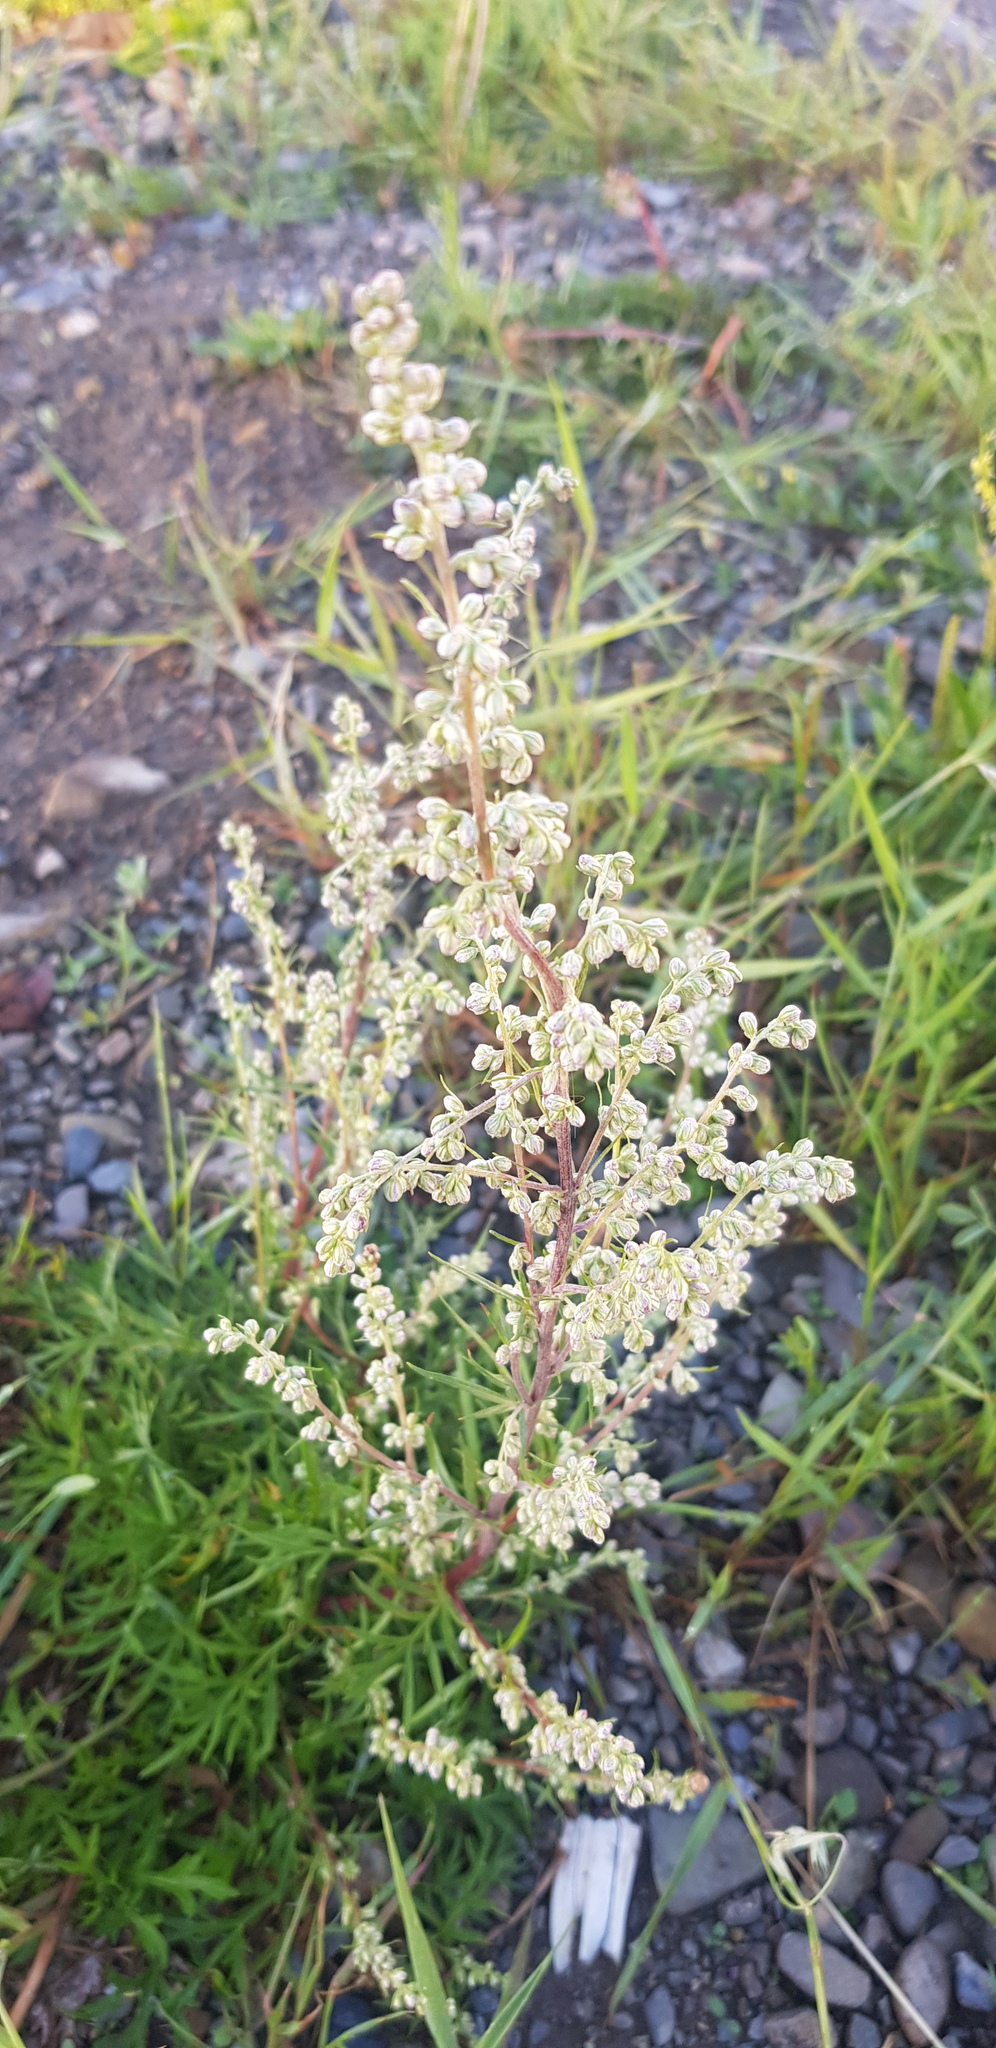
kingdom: Plantae
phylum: Tracheophyta
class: Magnoliopsida
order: Asterales
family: Asteraceae
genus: Artemisia
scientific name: Artemisia dracunculus
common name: Tarragon
